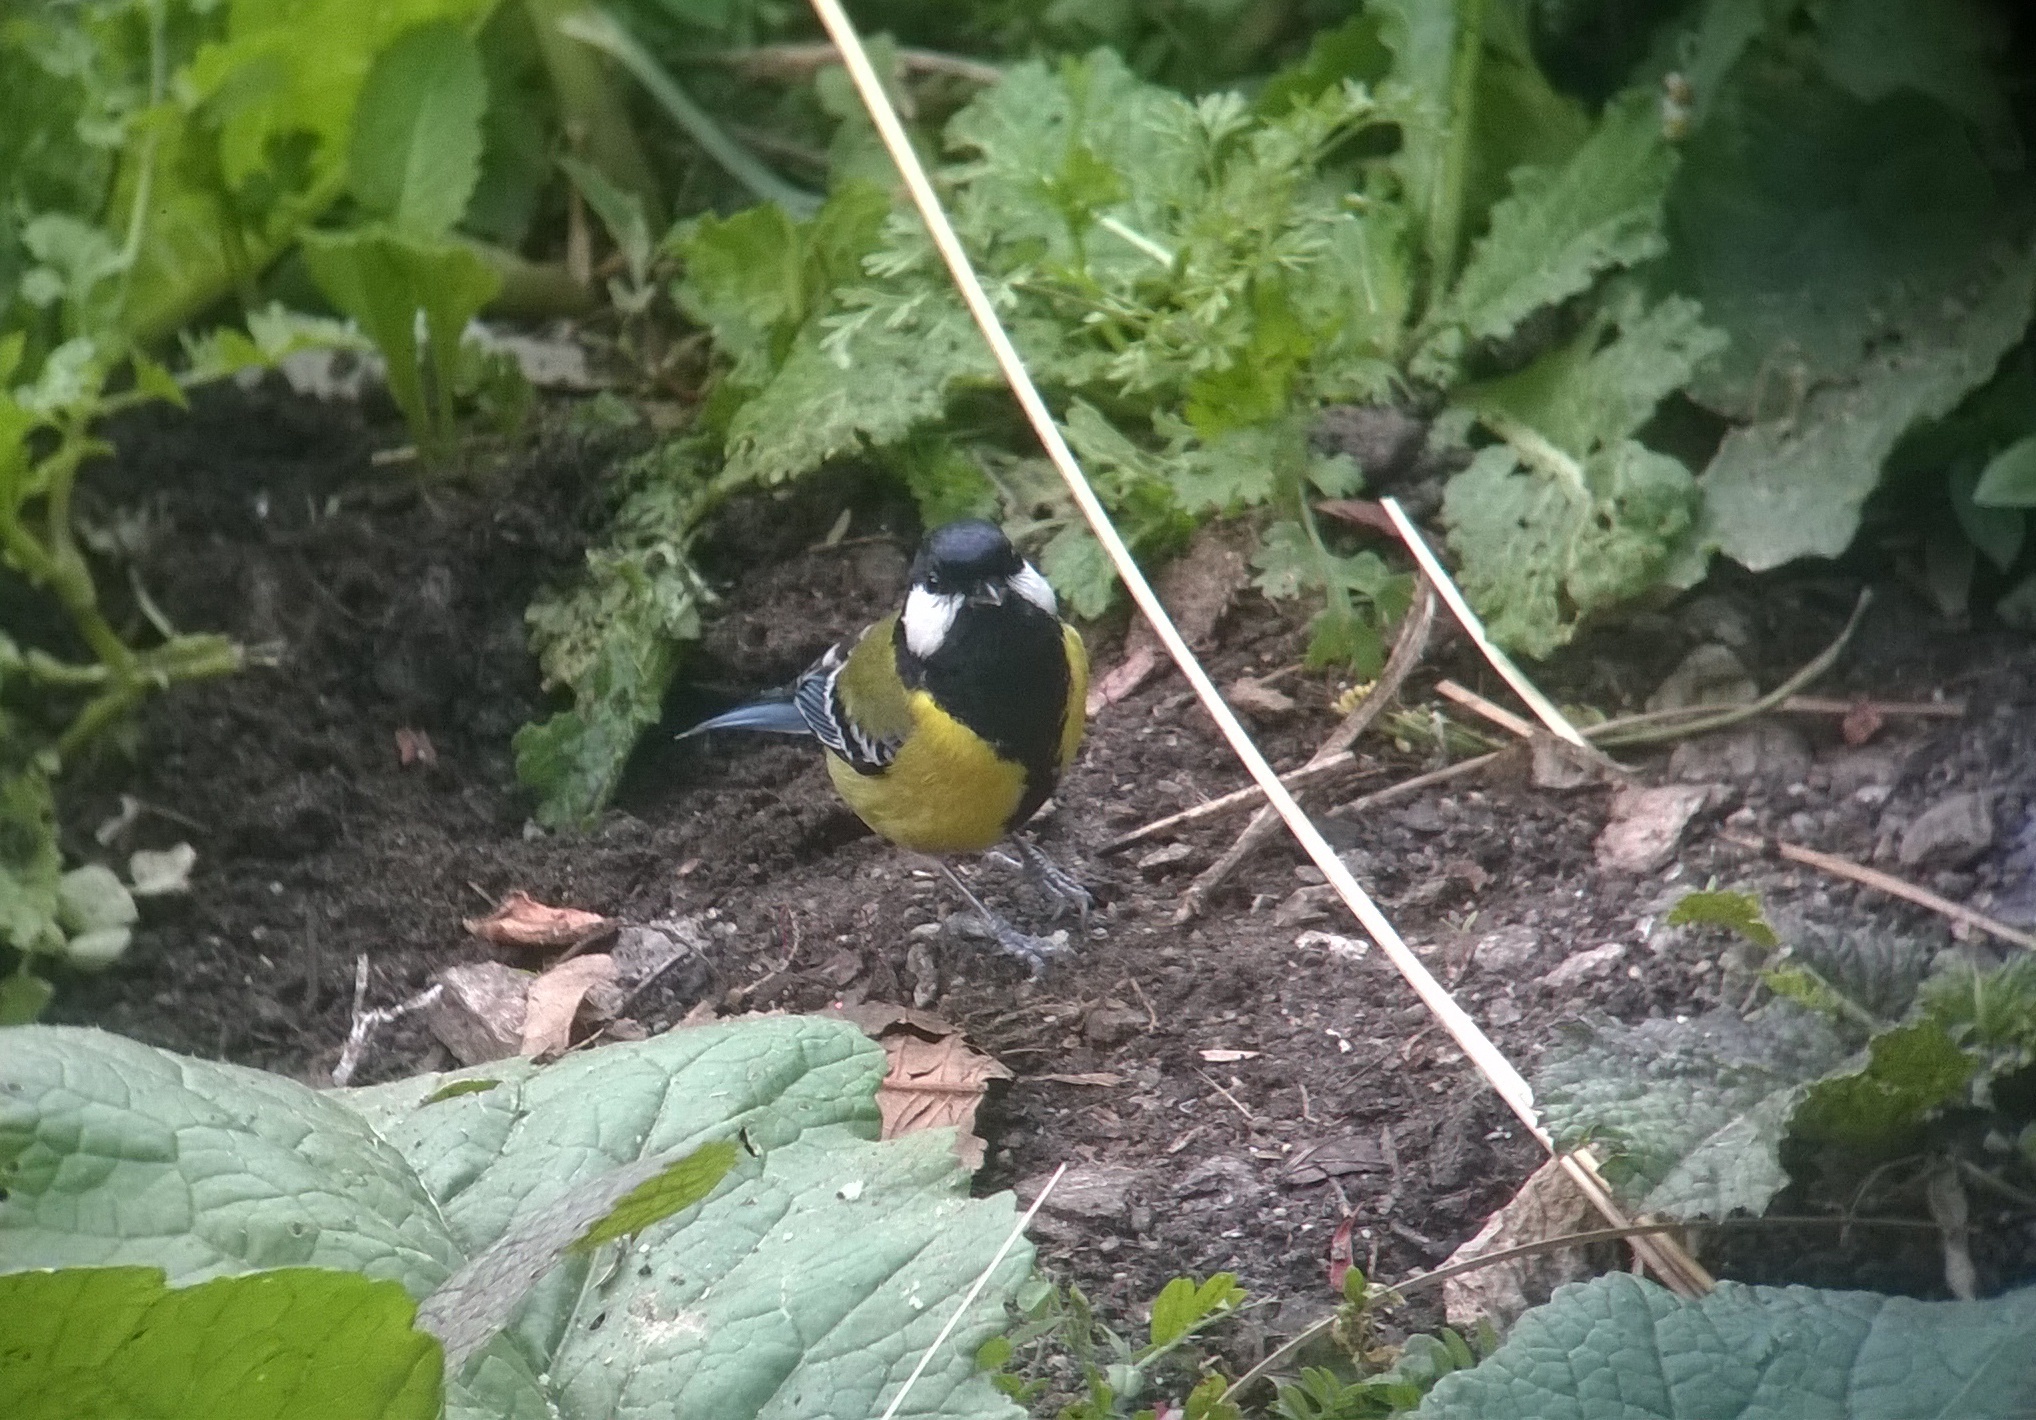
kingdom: Animalia
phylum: Chordata
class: Aves
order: Passeriformes
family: Paridae
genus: Parus
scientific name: Parus monticolus
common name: Green-backed tit
